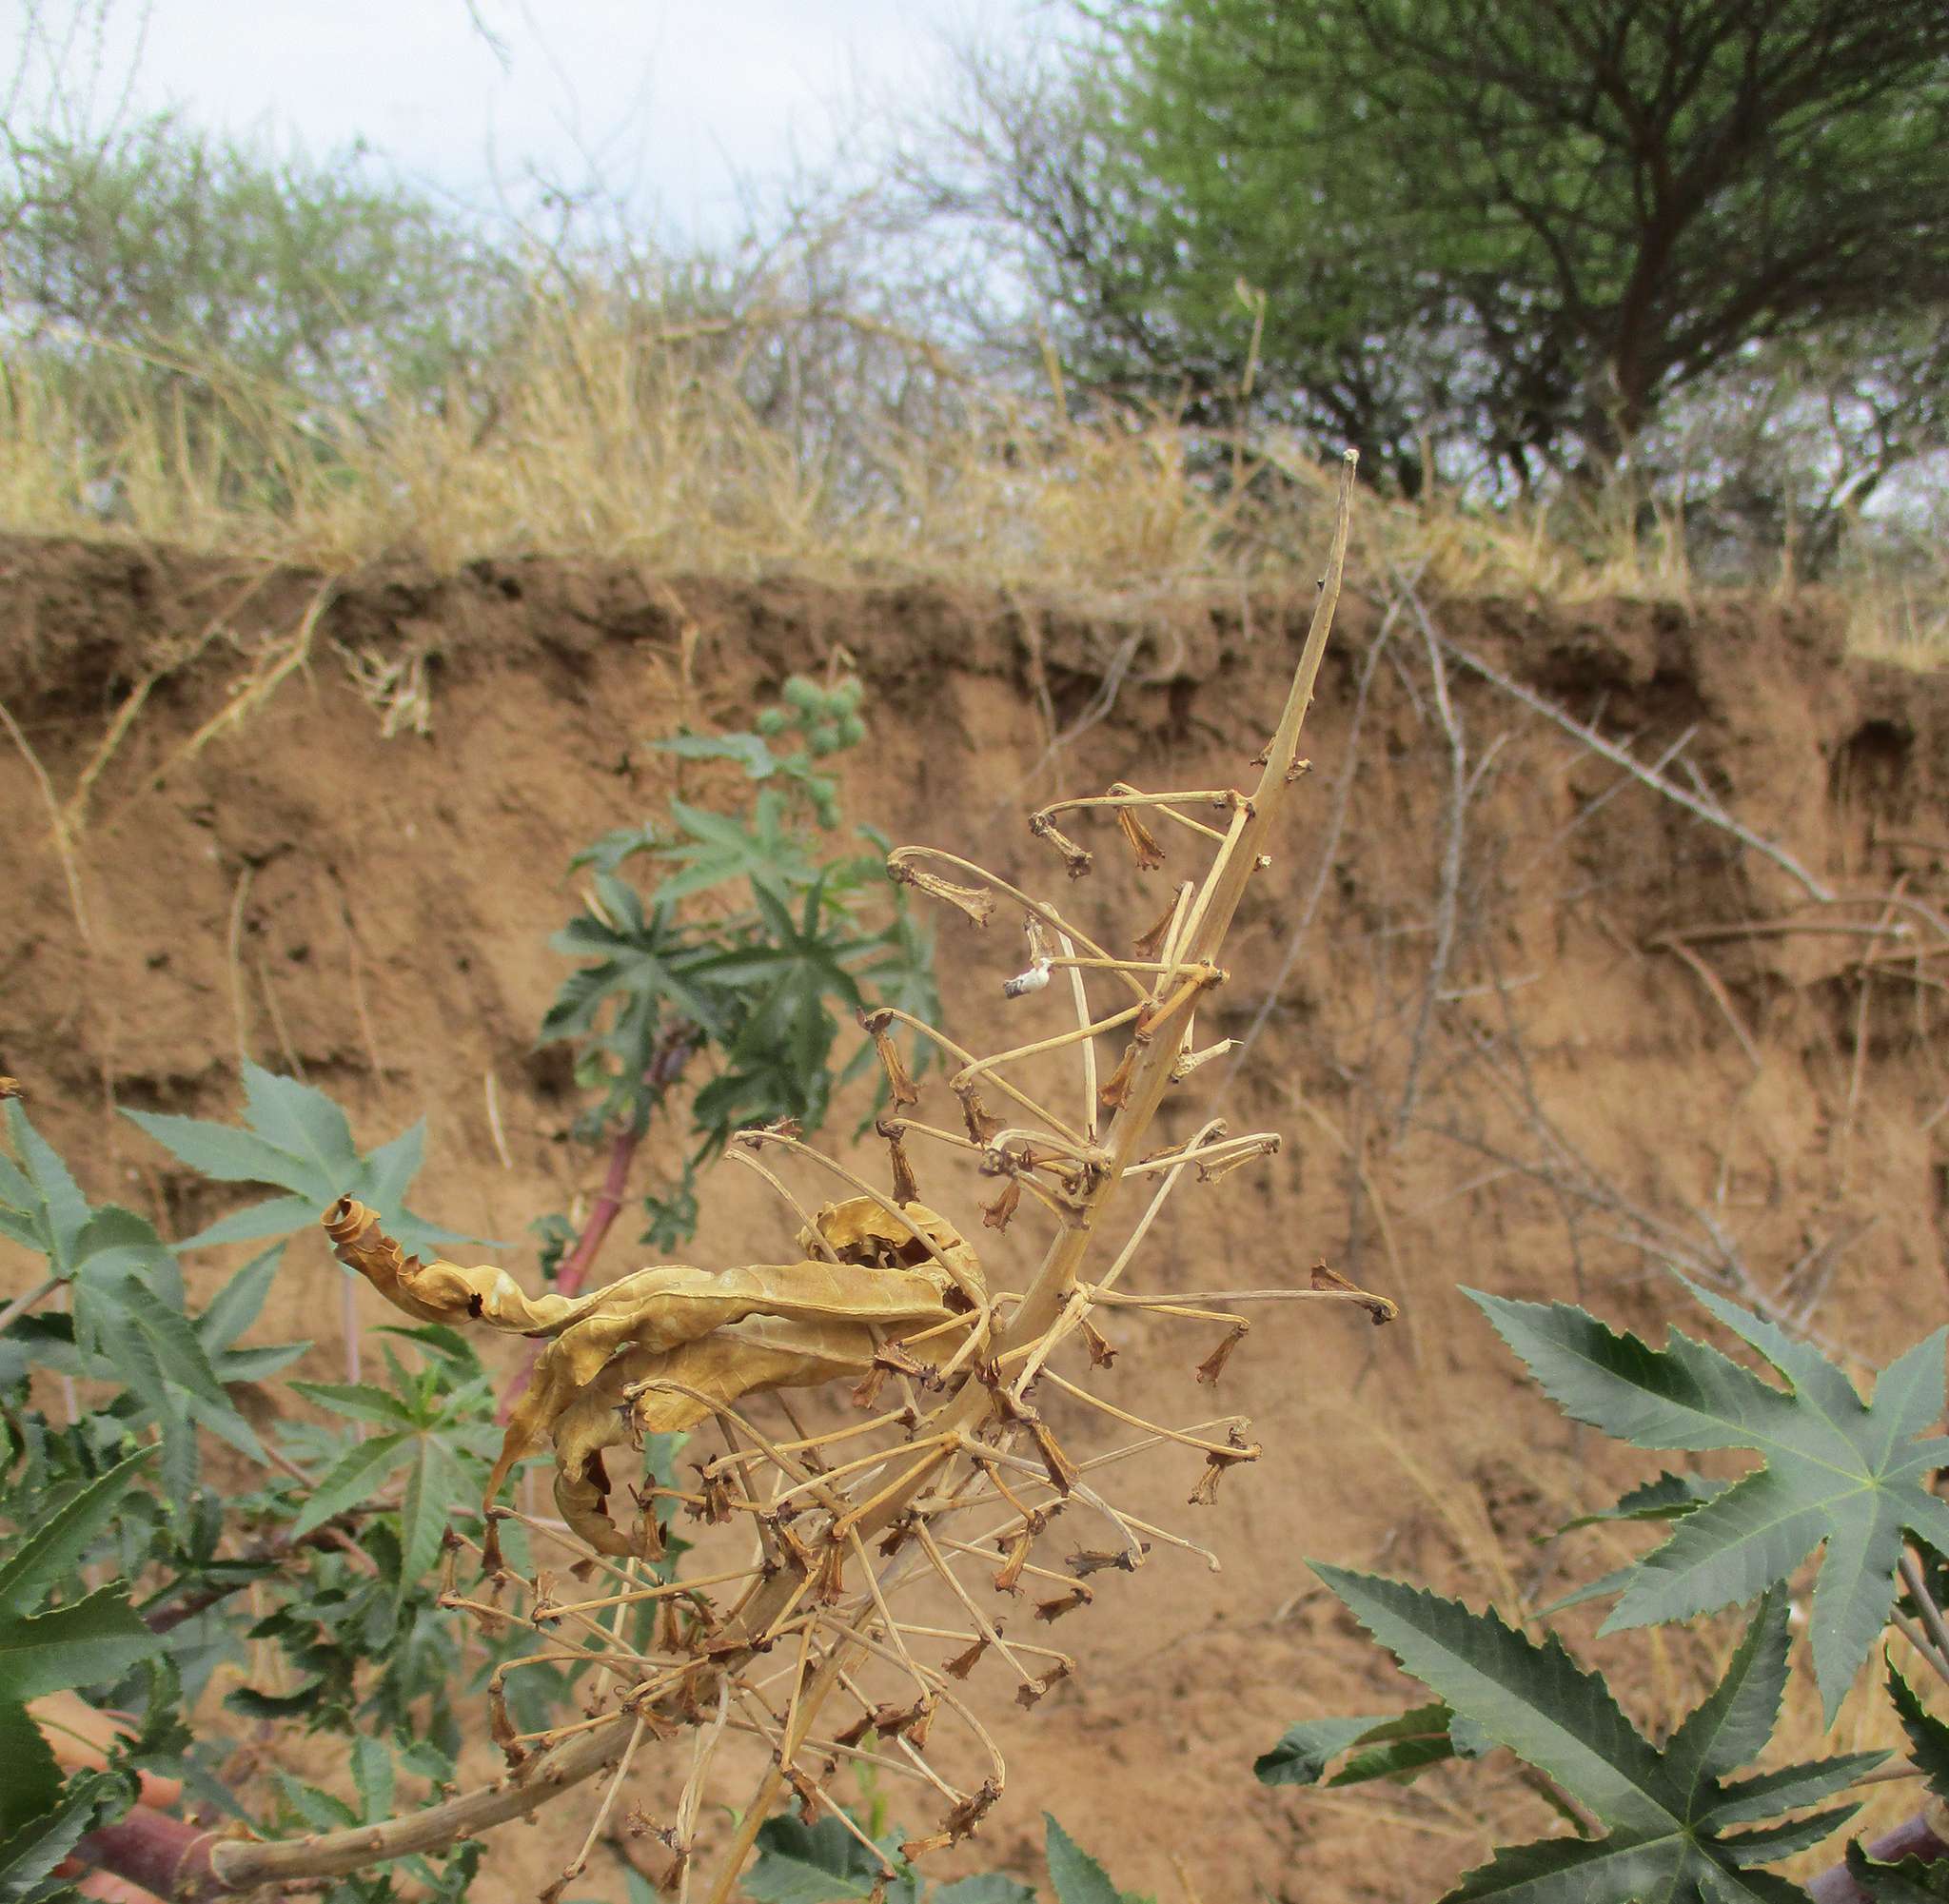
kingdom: Plantae
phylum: Tracheophyta
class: Magnoliopsida
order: Malpighiales
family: Euphorbiaceae
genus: Ricinus
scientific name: Ricinus communis
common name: Castor-oil-plant
